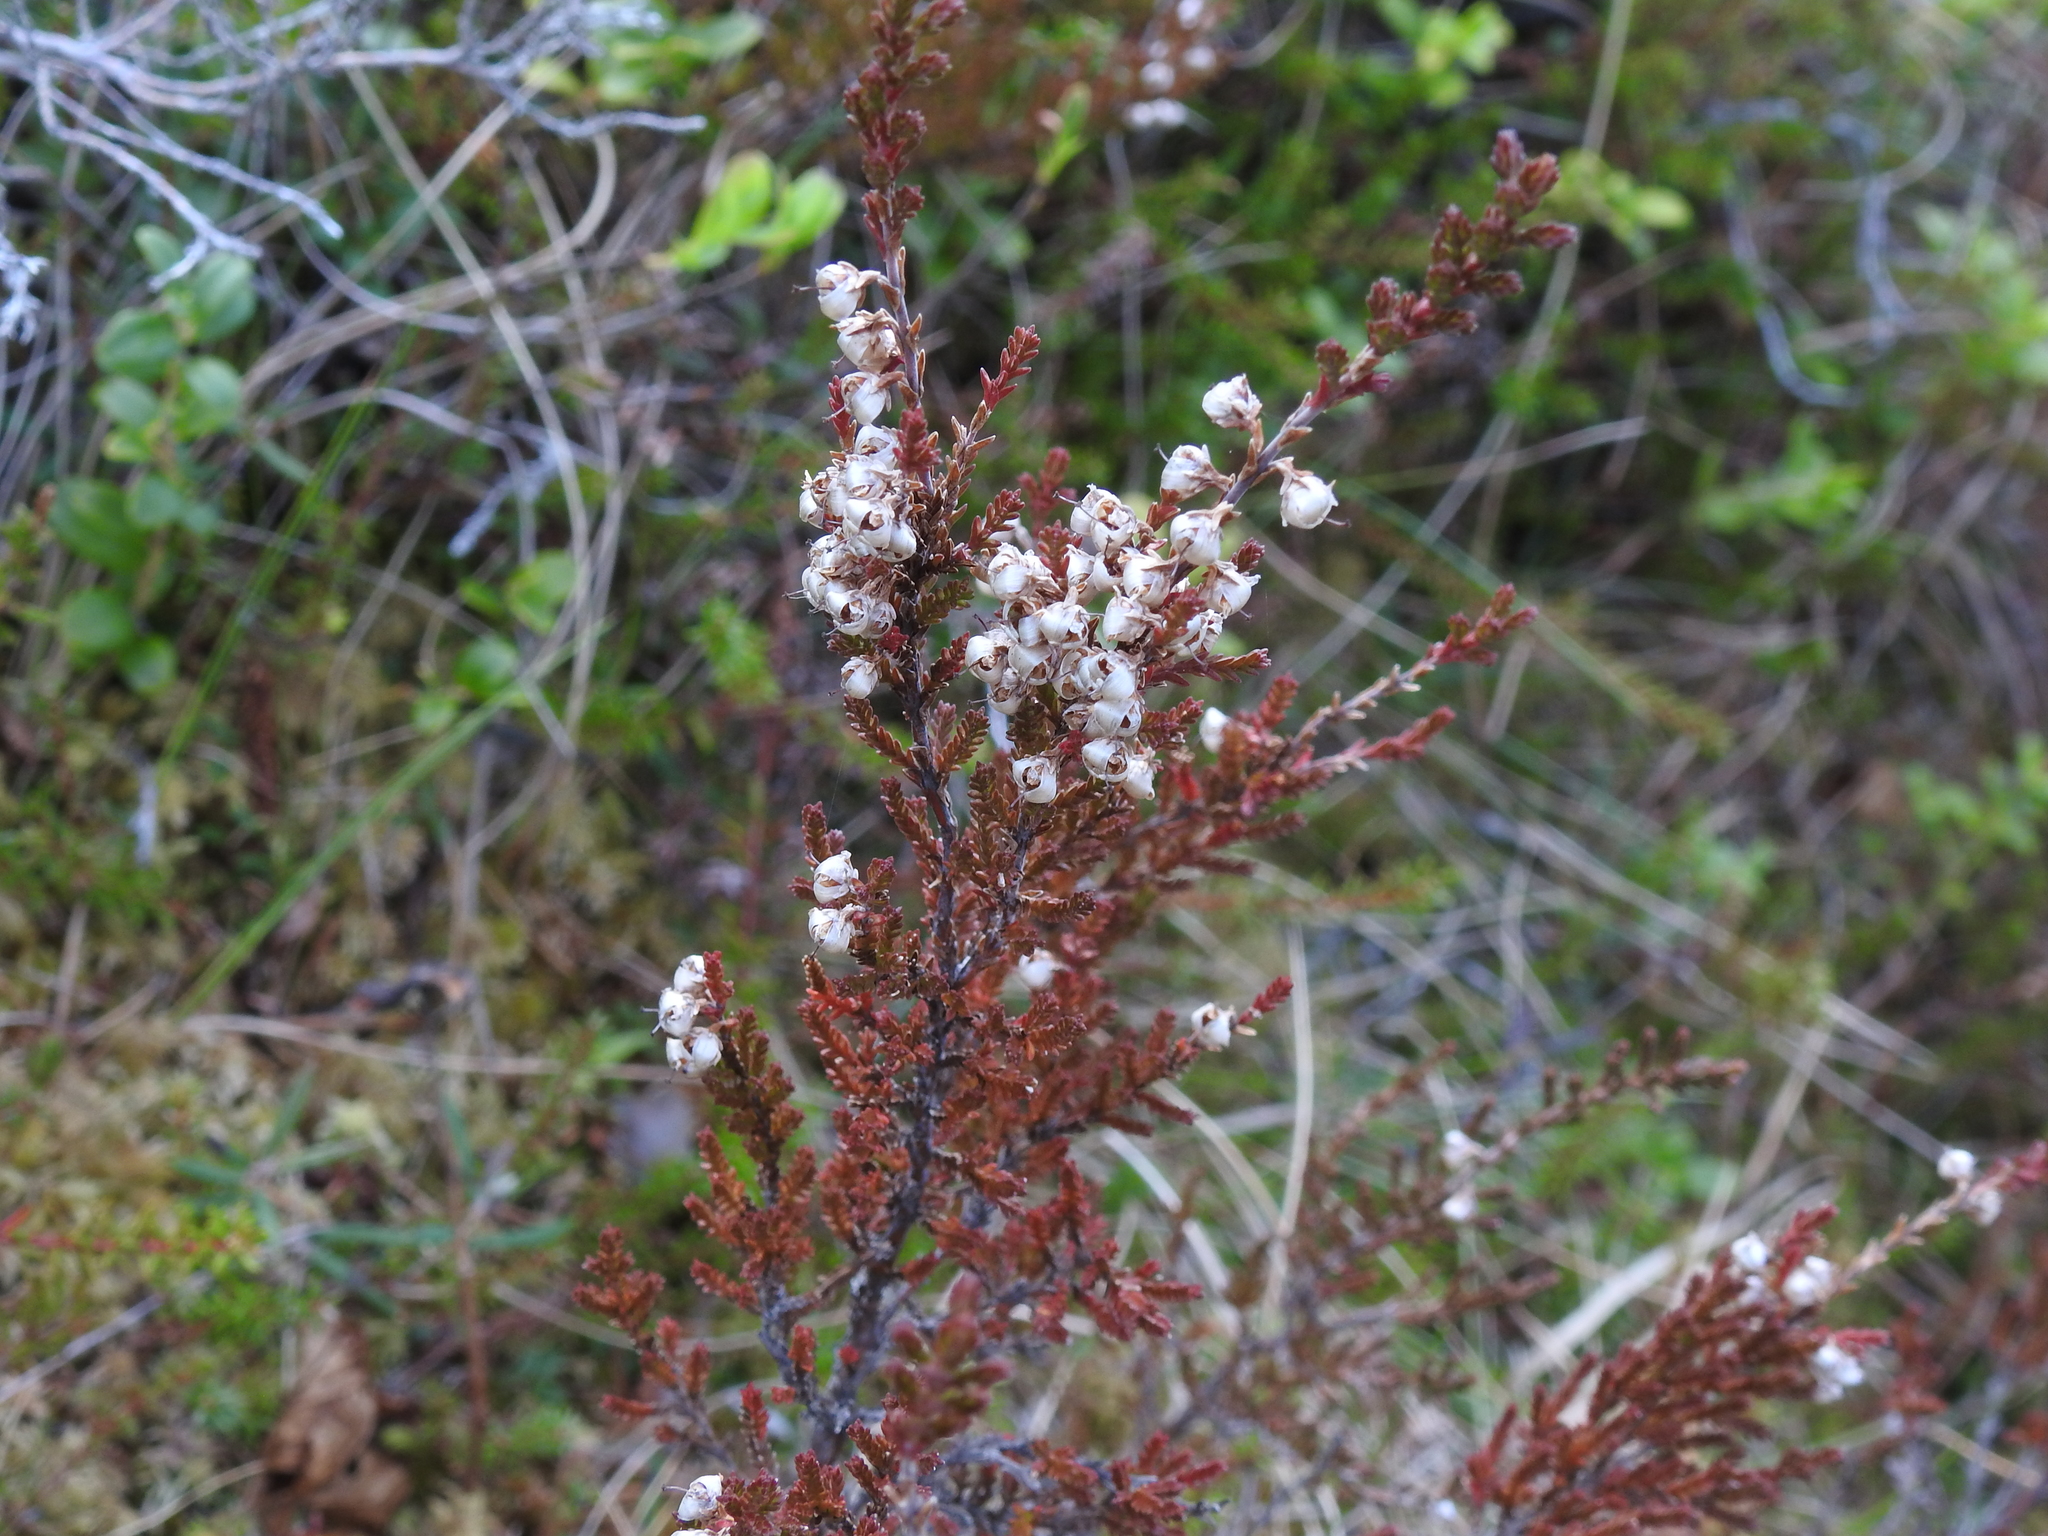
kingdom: Plantae
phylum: Tracheophyta
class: Magnoliopsida
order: Ericales
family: Ericaceae
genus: Calluna
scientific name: Calluna vulgaris
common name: Heather
